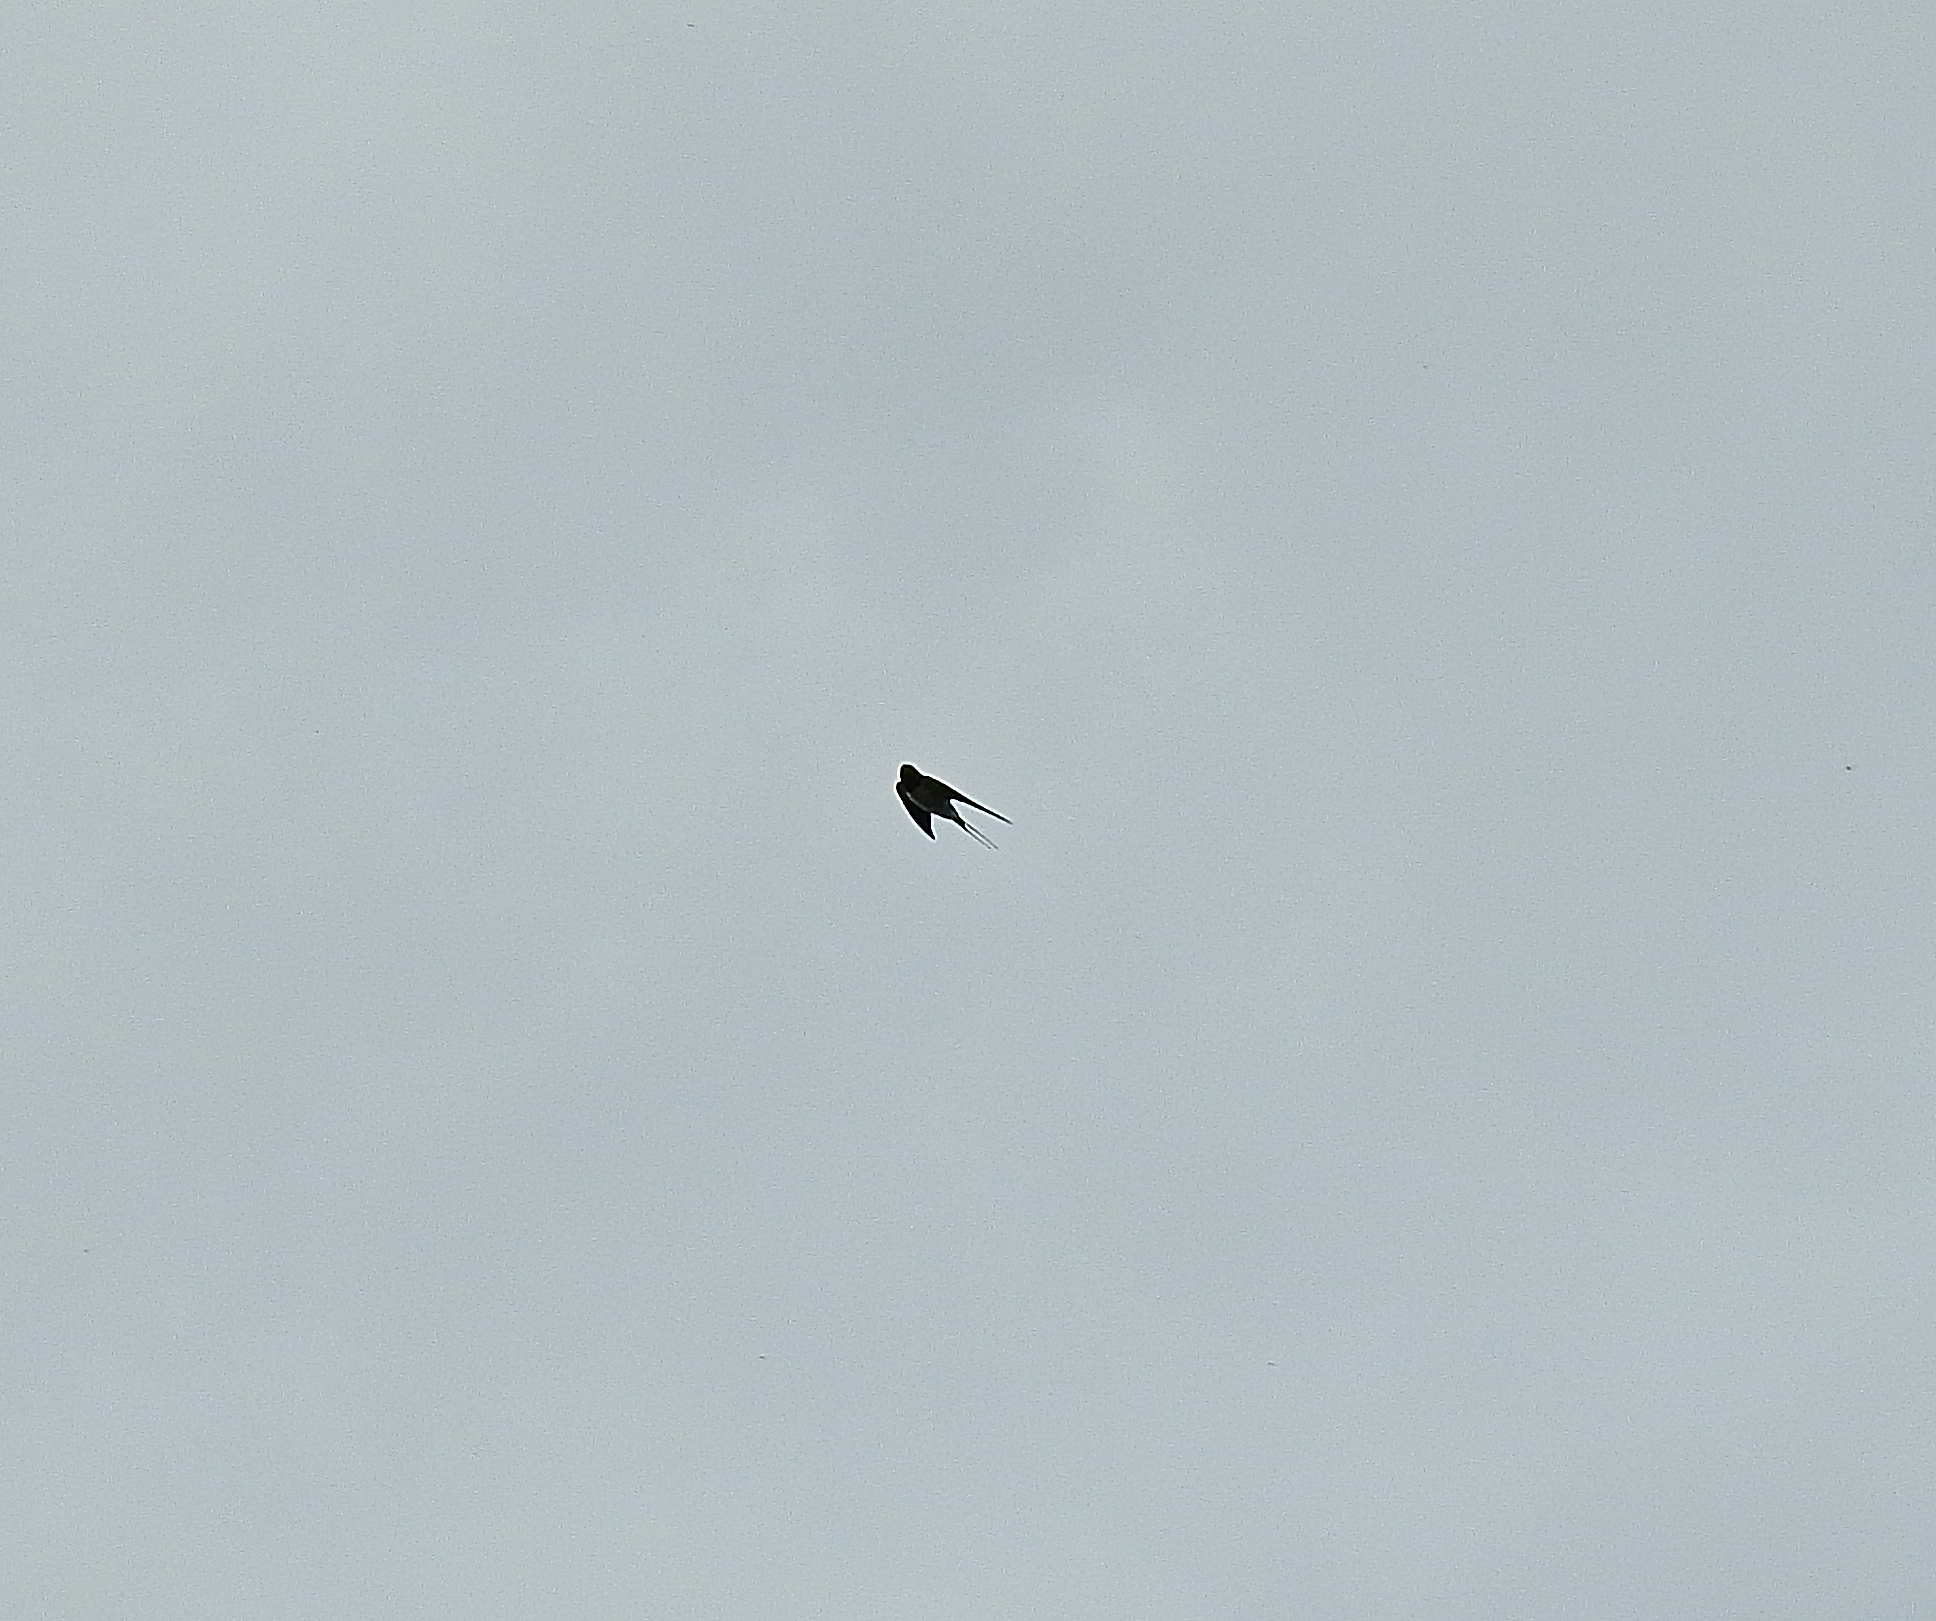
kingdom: Animalia
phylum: Chordata
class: Aves
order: Passeriformes
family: Hirundinidae
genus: Hirundo
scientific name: Hirundo rustica
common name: Barn swallow
